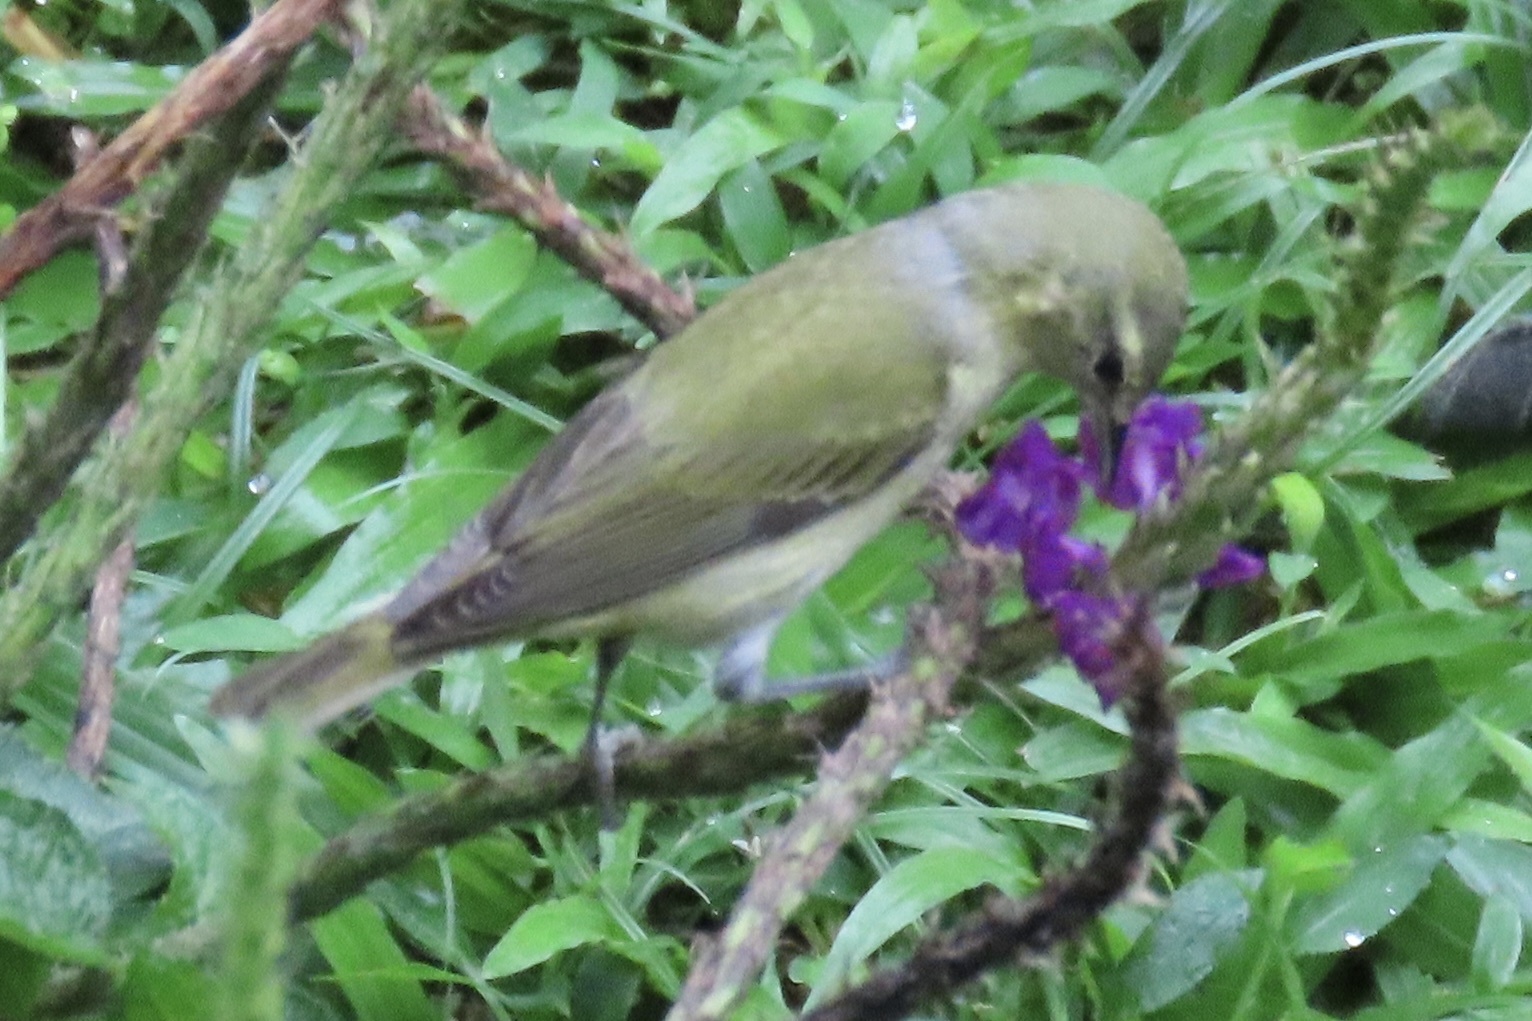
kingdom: Animalia
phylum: Chordata
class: Aves
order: Passeriformes
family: Parulidae
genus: Leiothlypis
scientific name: Leiothlypis peregrina
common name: Tennessee warbler
